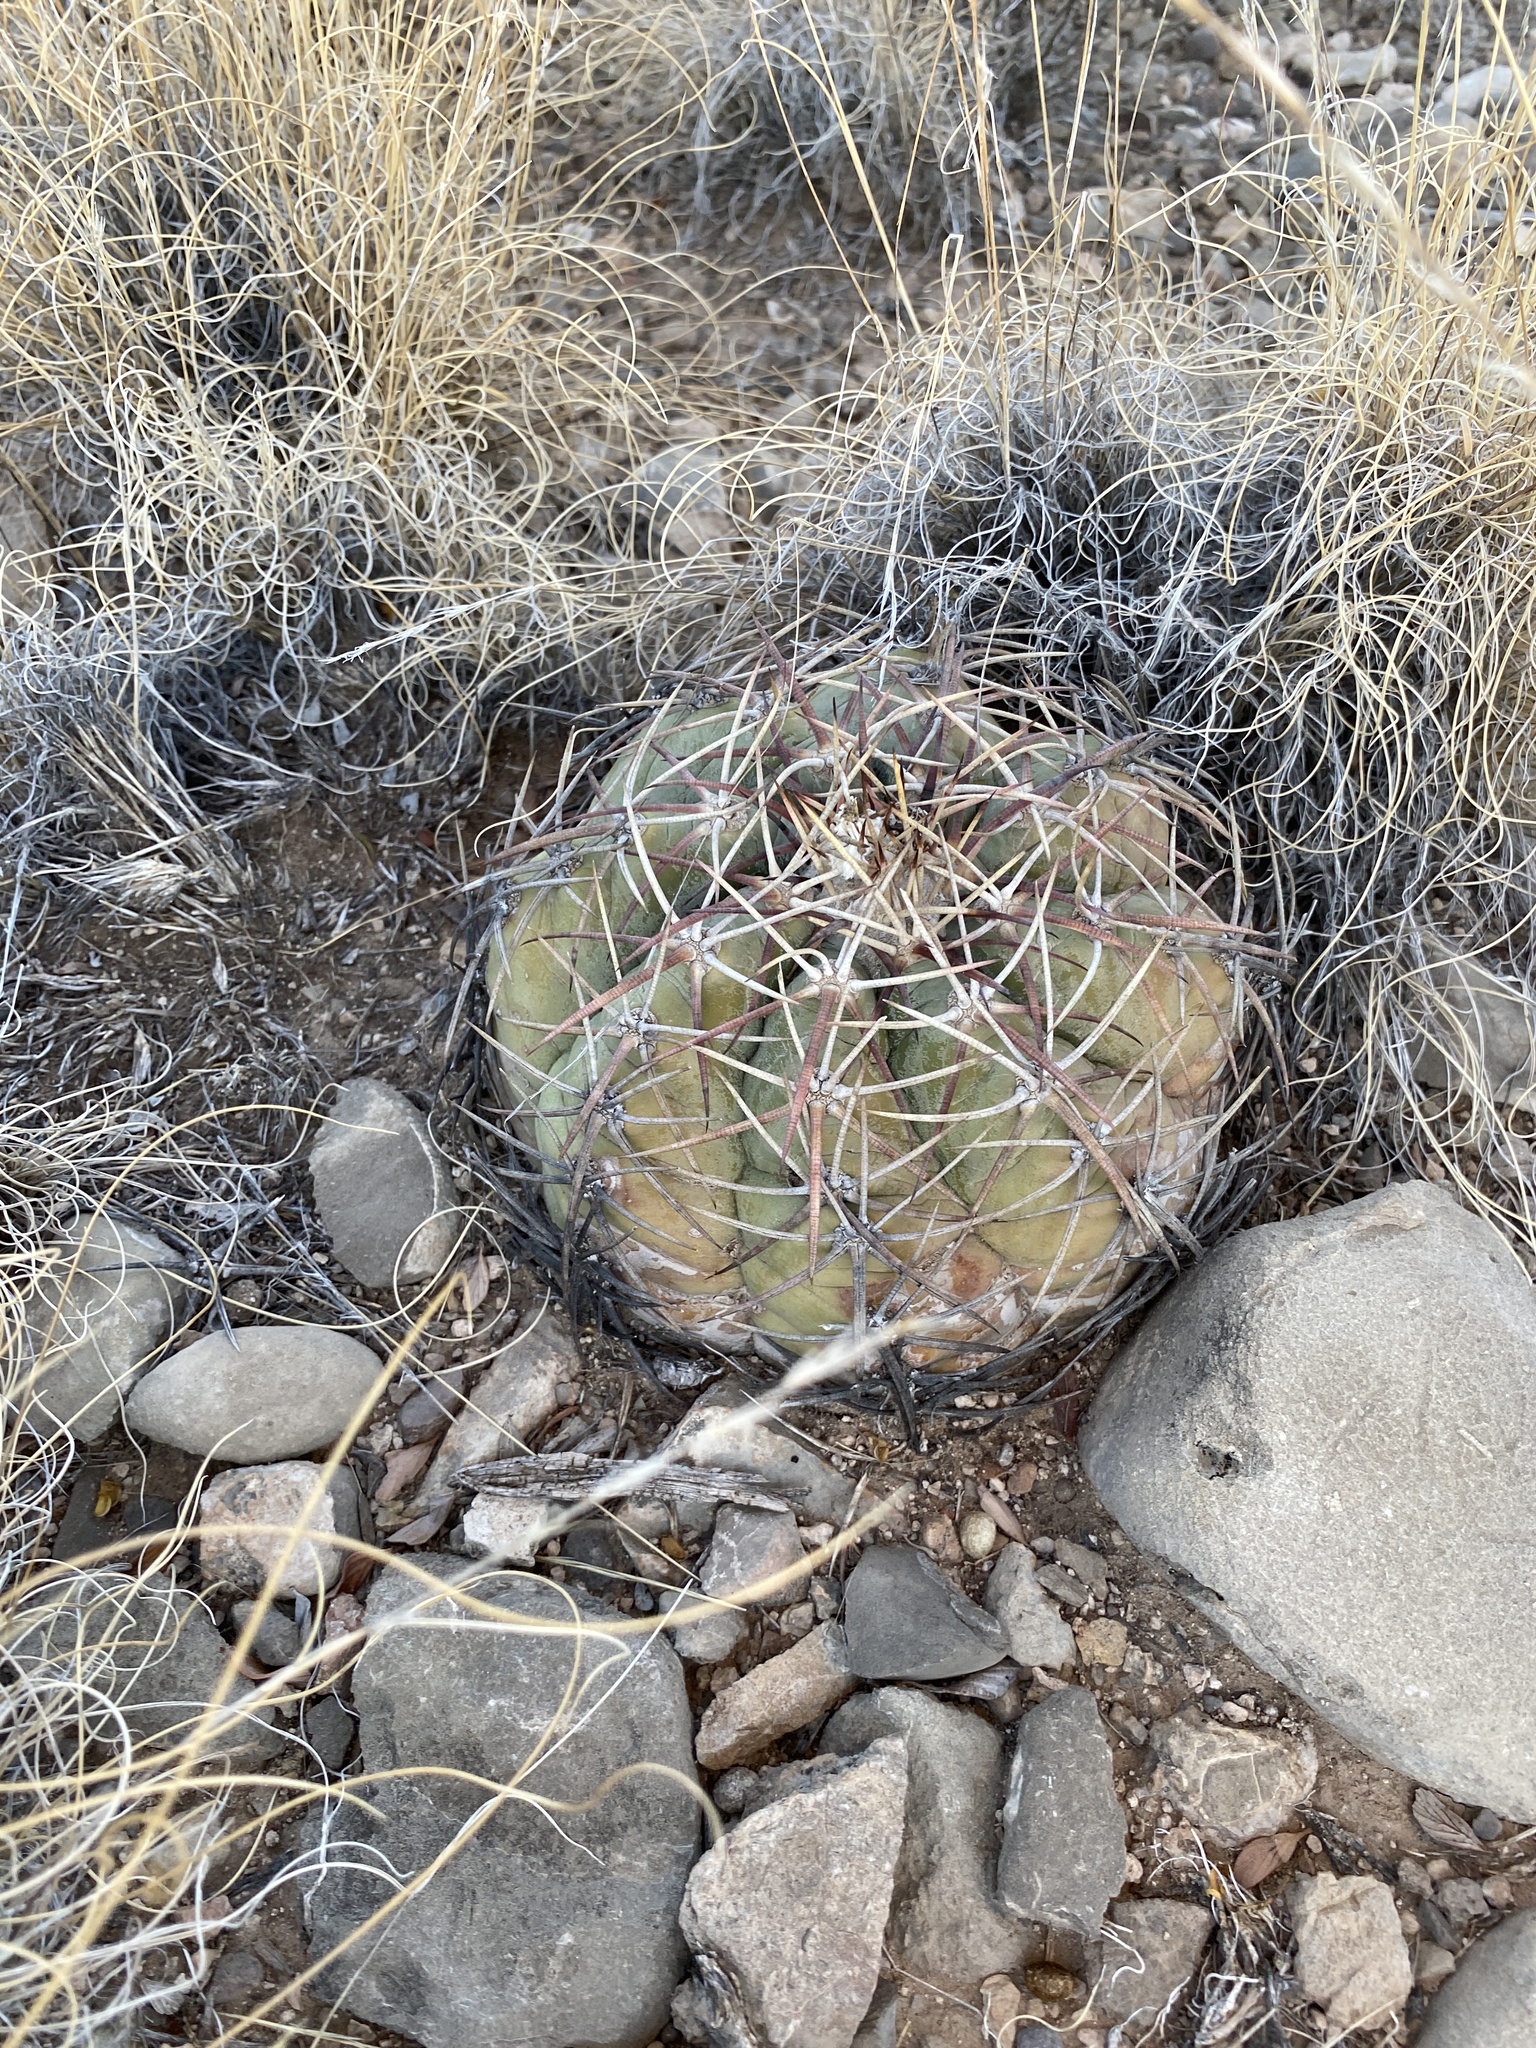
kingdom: Plantae
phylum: Tracheophyta
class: Magnoliopsida
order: Caryophyllales
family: Cactaceae
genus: Echinocactus
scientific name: Echinocactus horizonthalonius
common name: Devilshead
